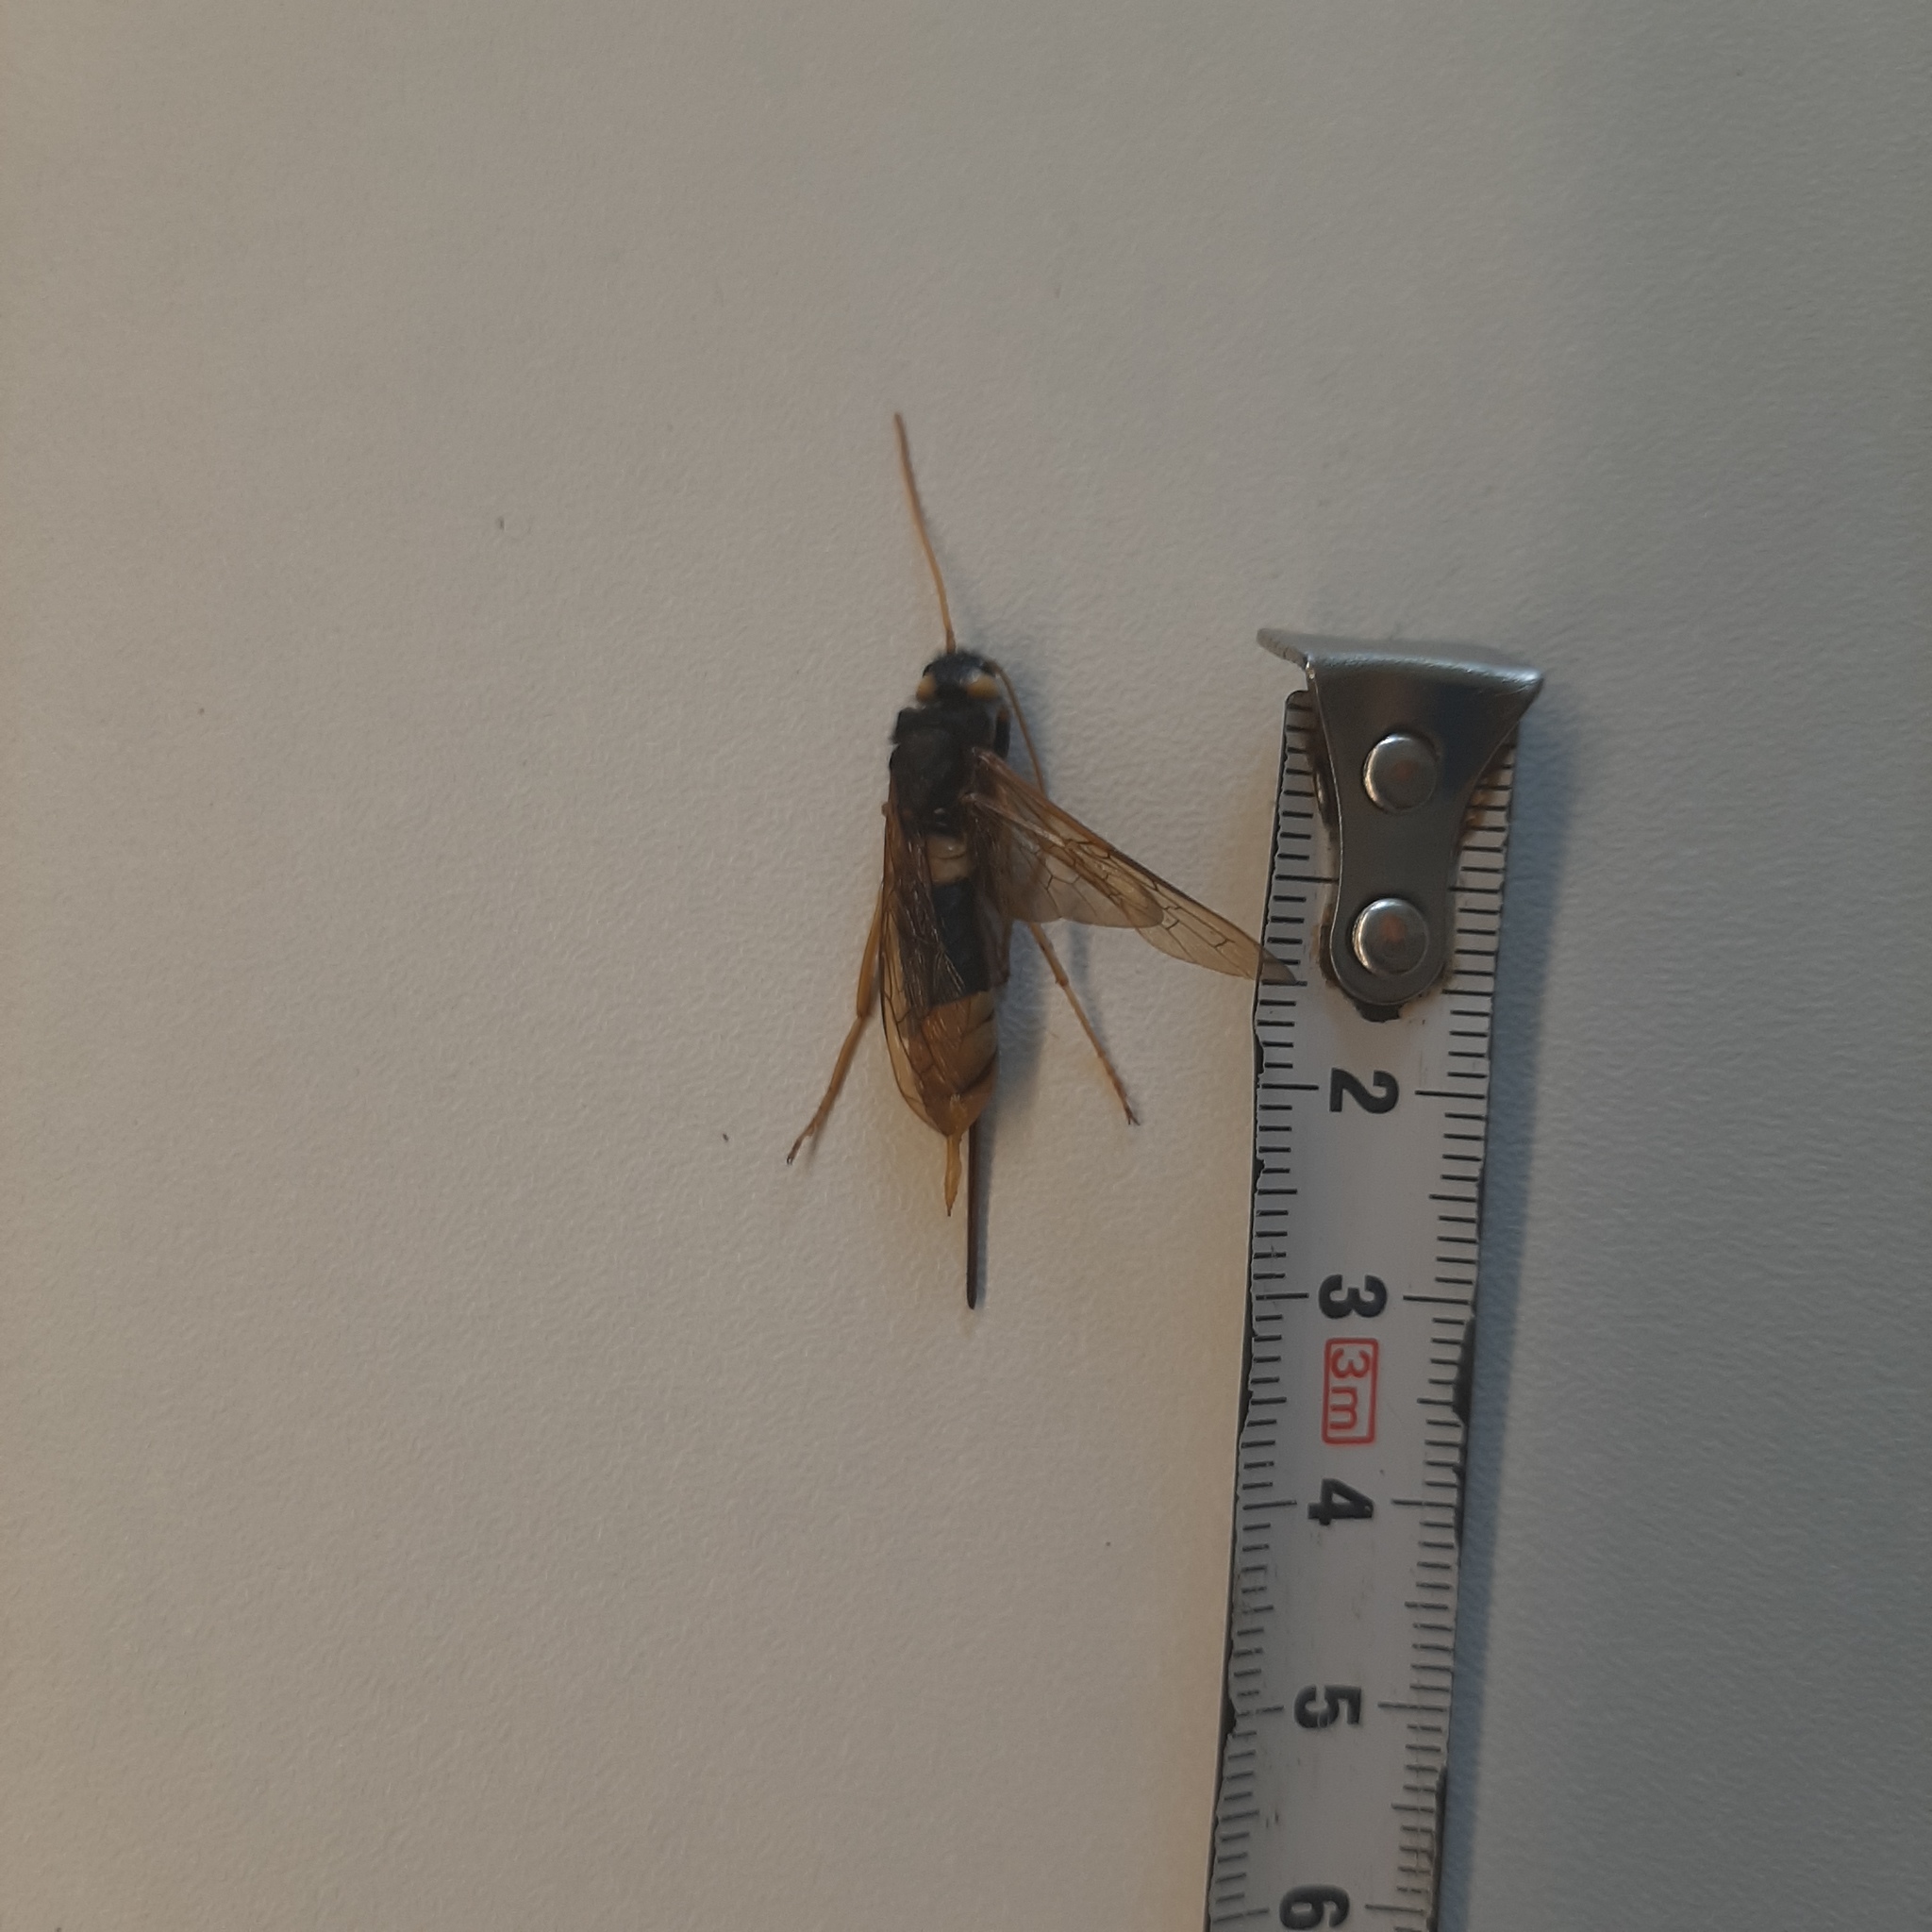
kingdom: Animalia
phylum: Arthropoda
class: Insecta
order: Hymenoptera
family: Siricidae
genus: Urocerus
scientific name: Urocerus gigas
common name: Giant woodwasp
